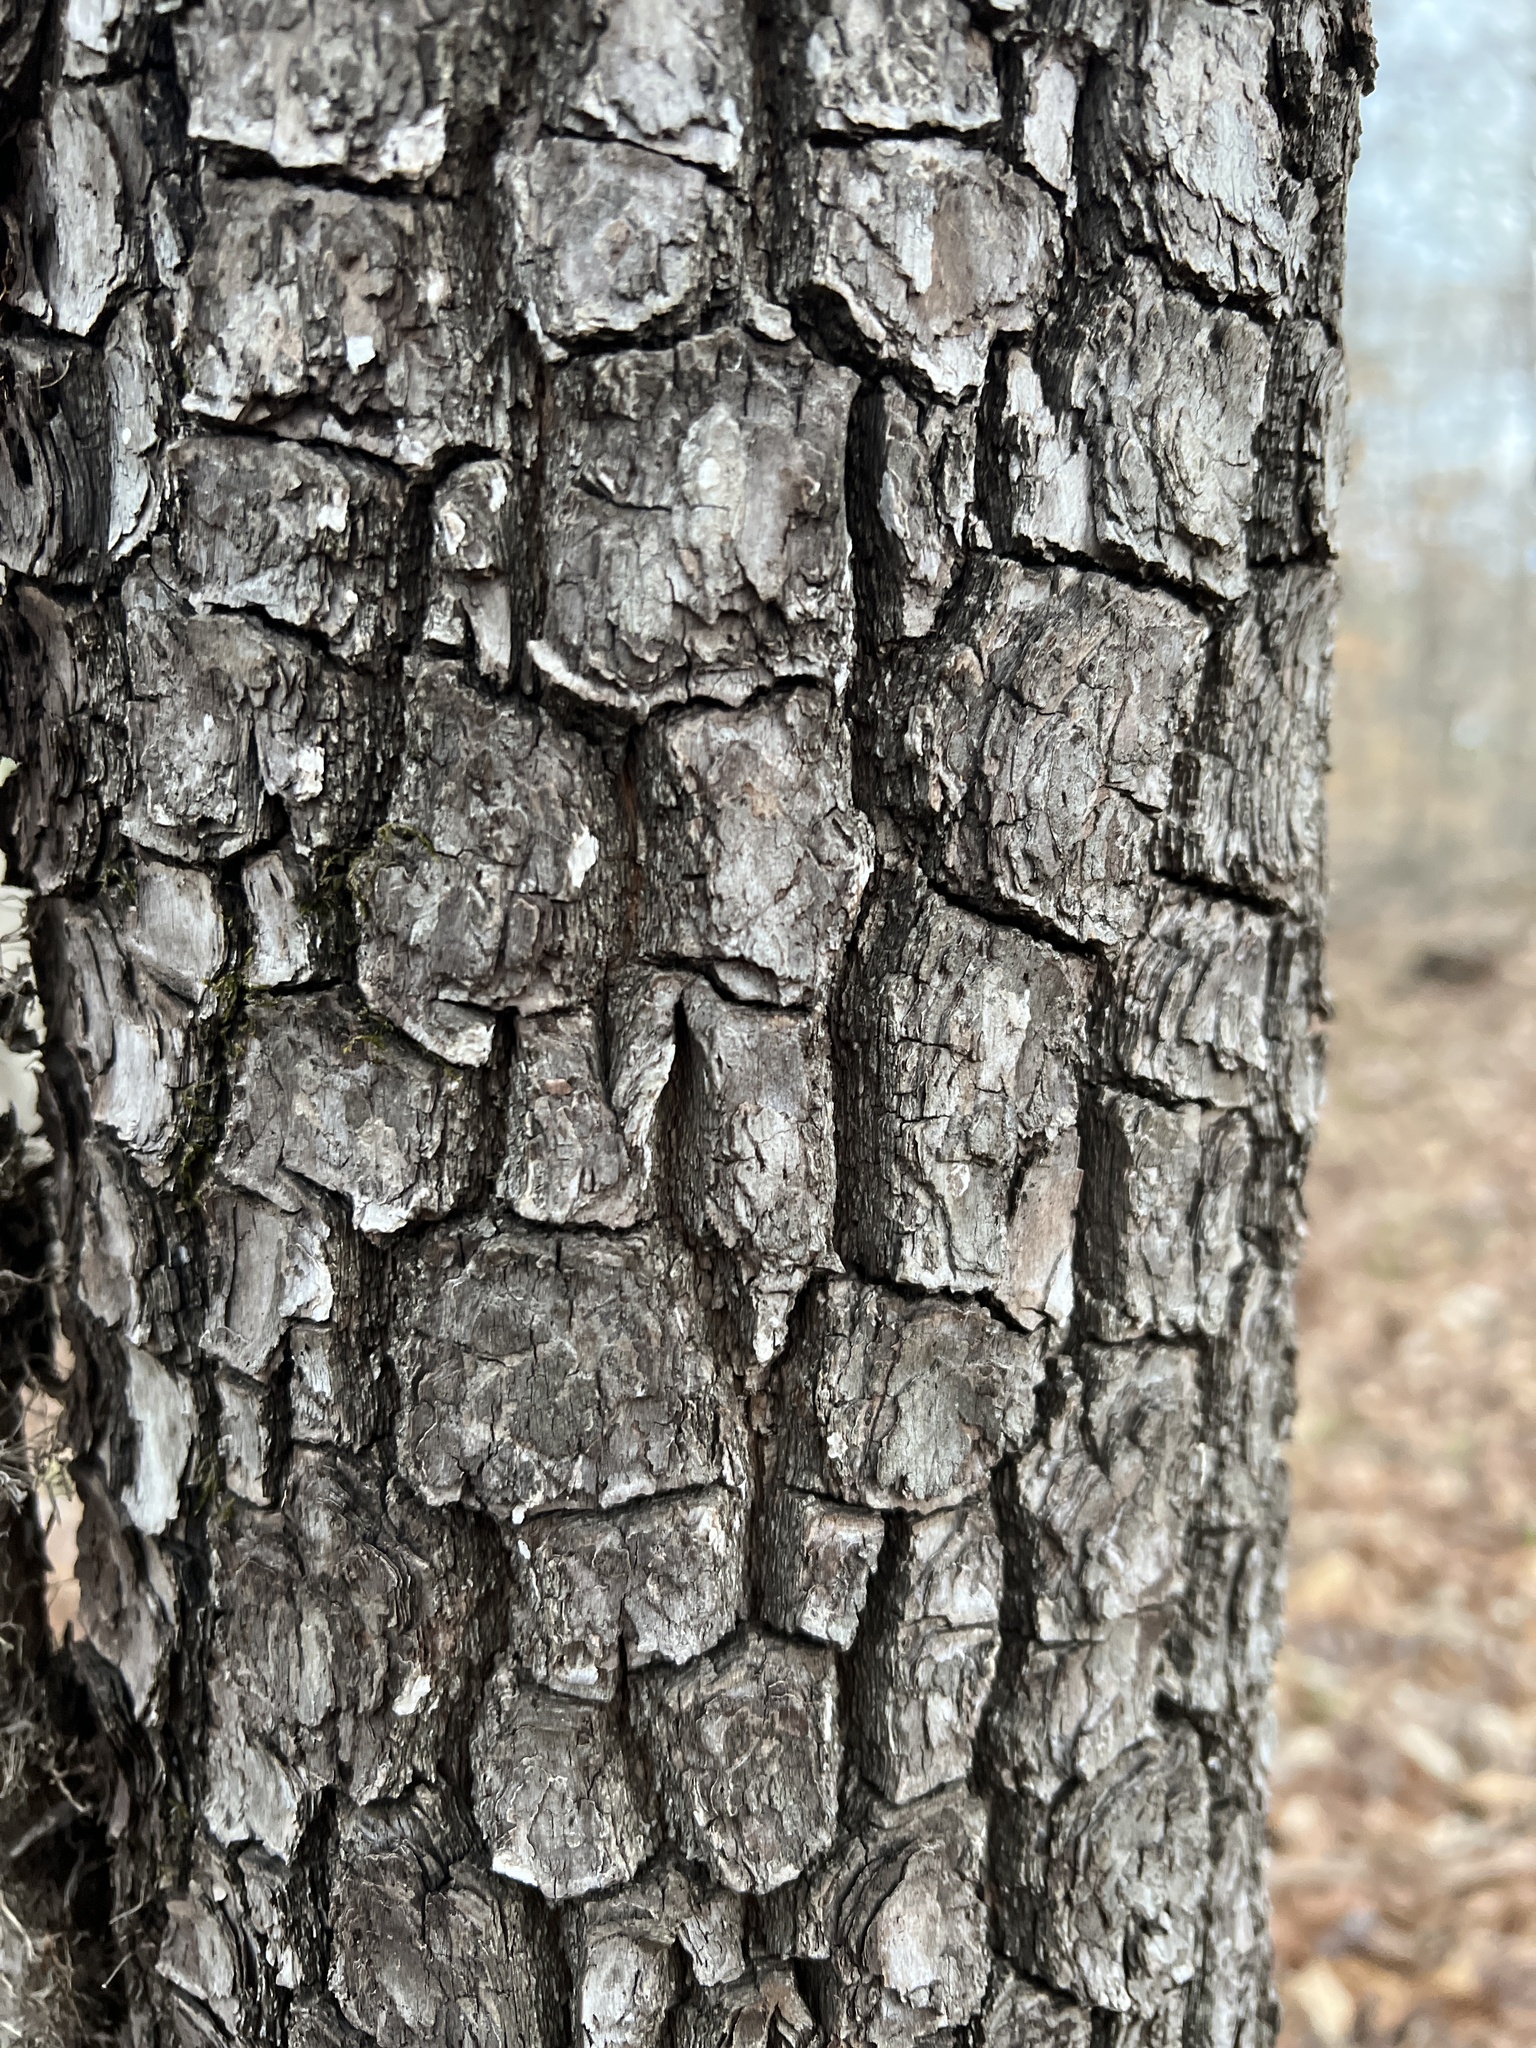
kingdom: Plantae
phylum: Tracheophyta
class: Magnoliopsida
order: Ericales
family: Ebenaceae
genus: Diospyros
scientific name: Diospyros virginiana
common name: Persimmon
